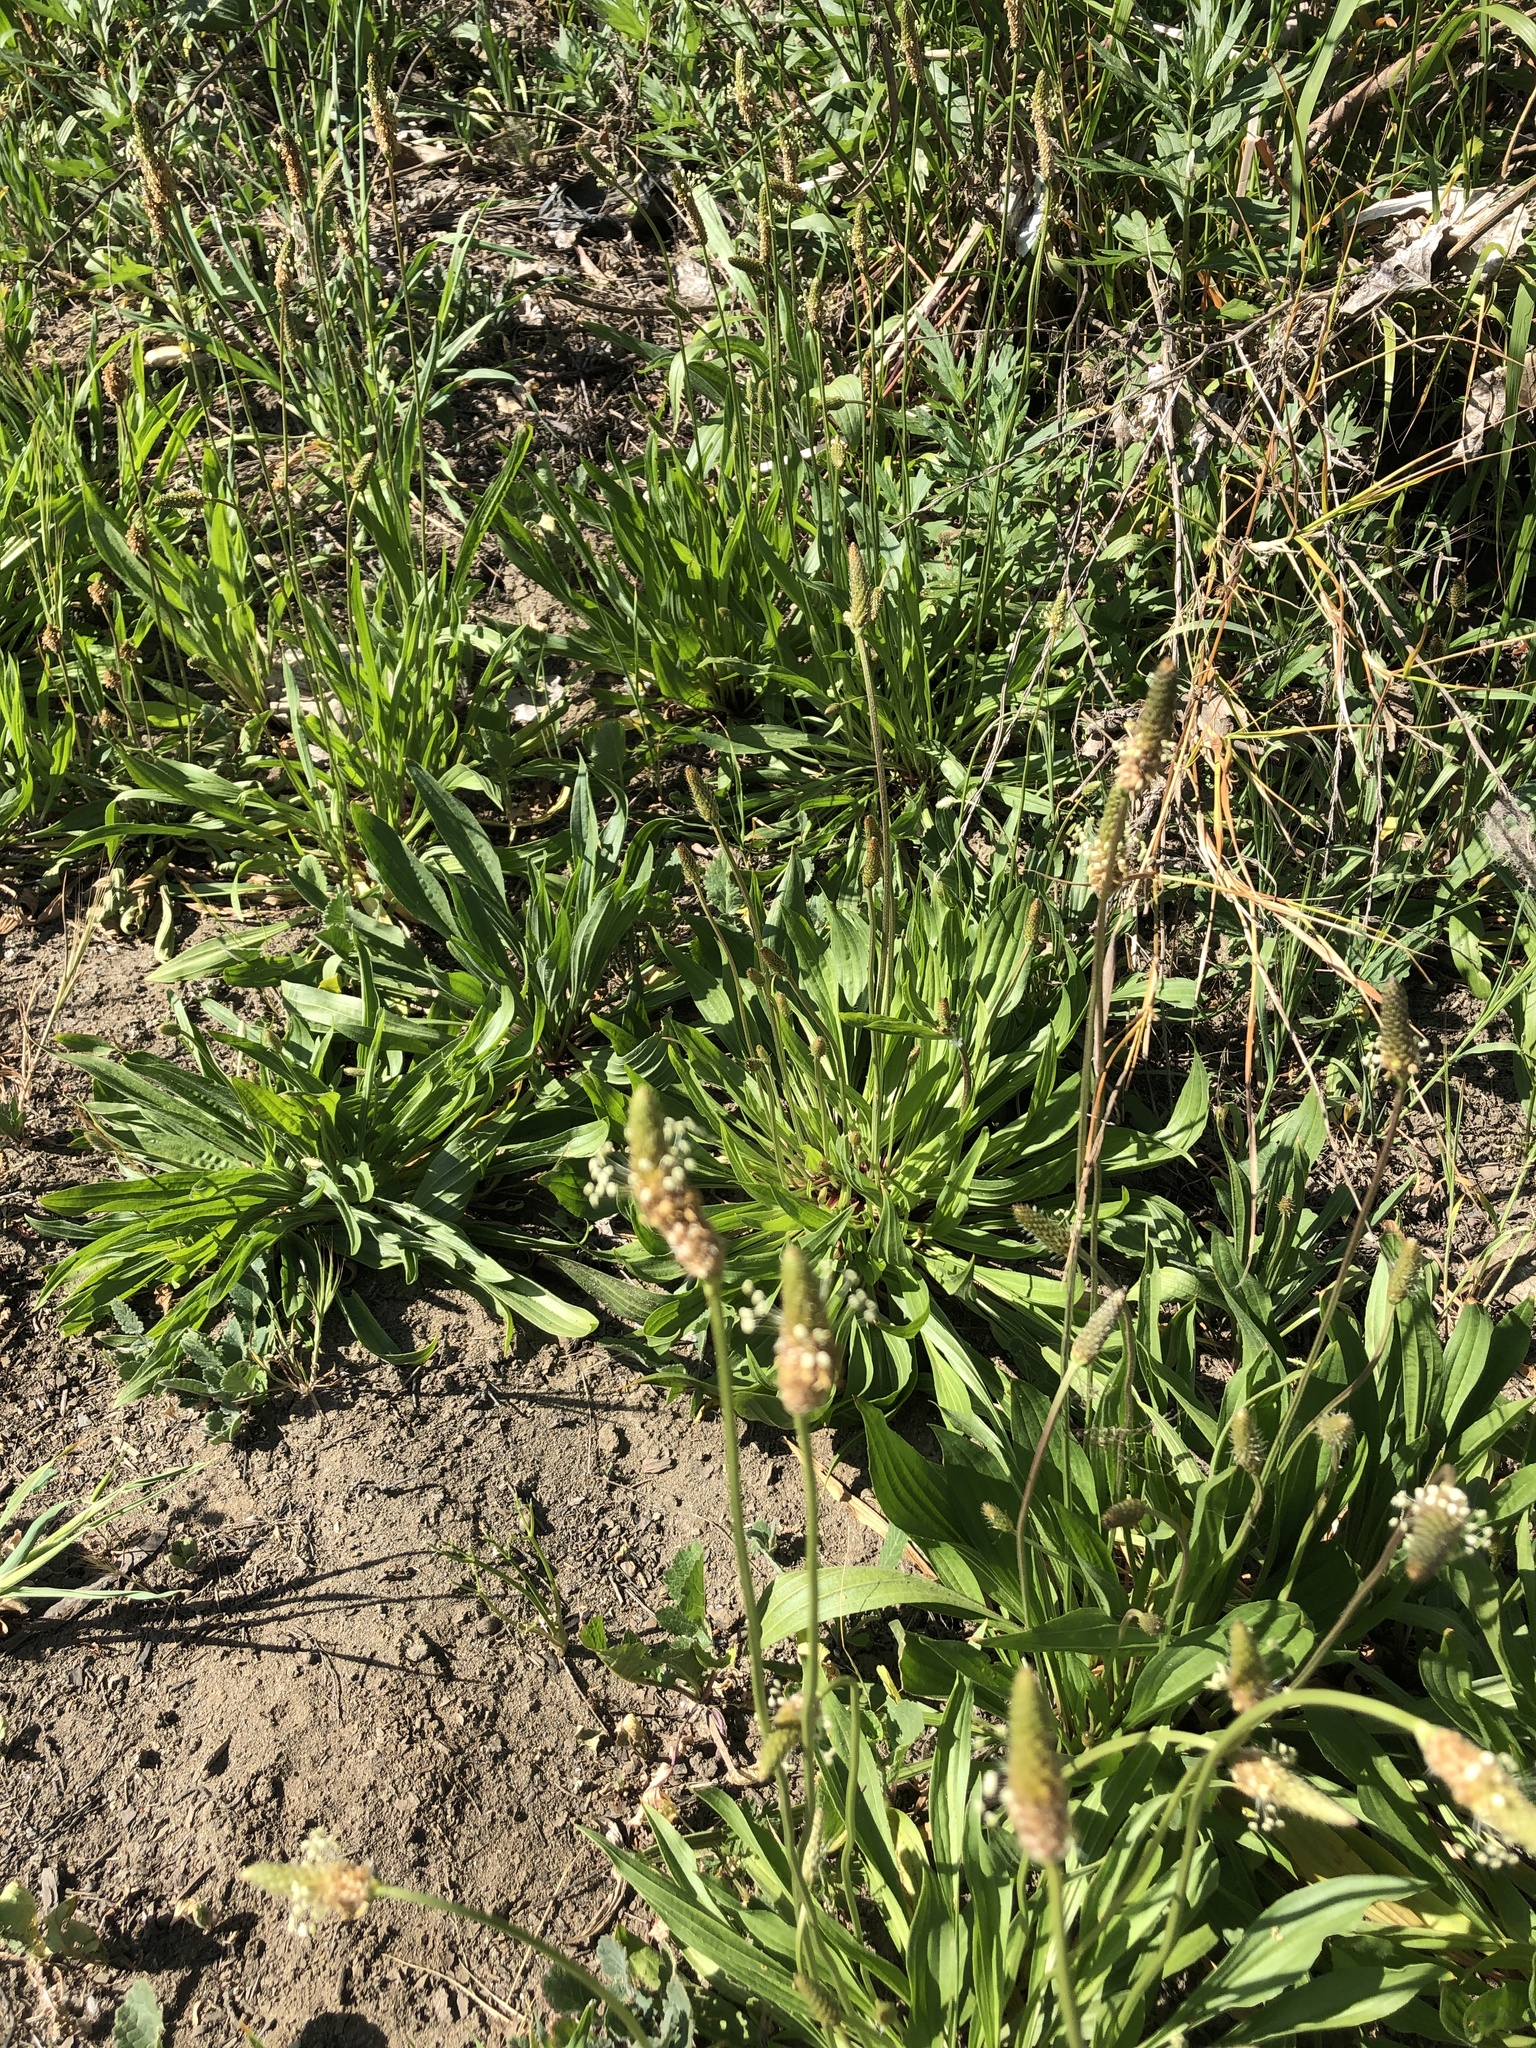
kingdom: Plantae
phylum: Tracheophyta
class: Magnoliopsida
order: Lamiales
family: Plantaginaceae
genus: Plantago
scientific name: Plantago lanceolata
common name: Ribwort plantain
